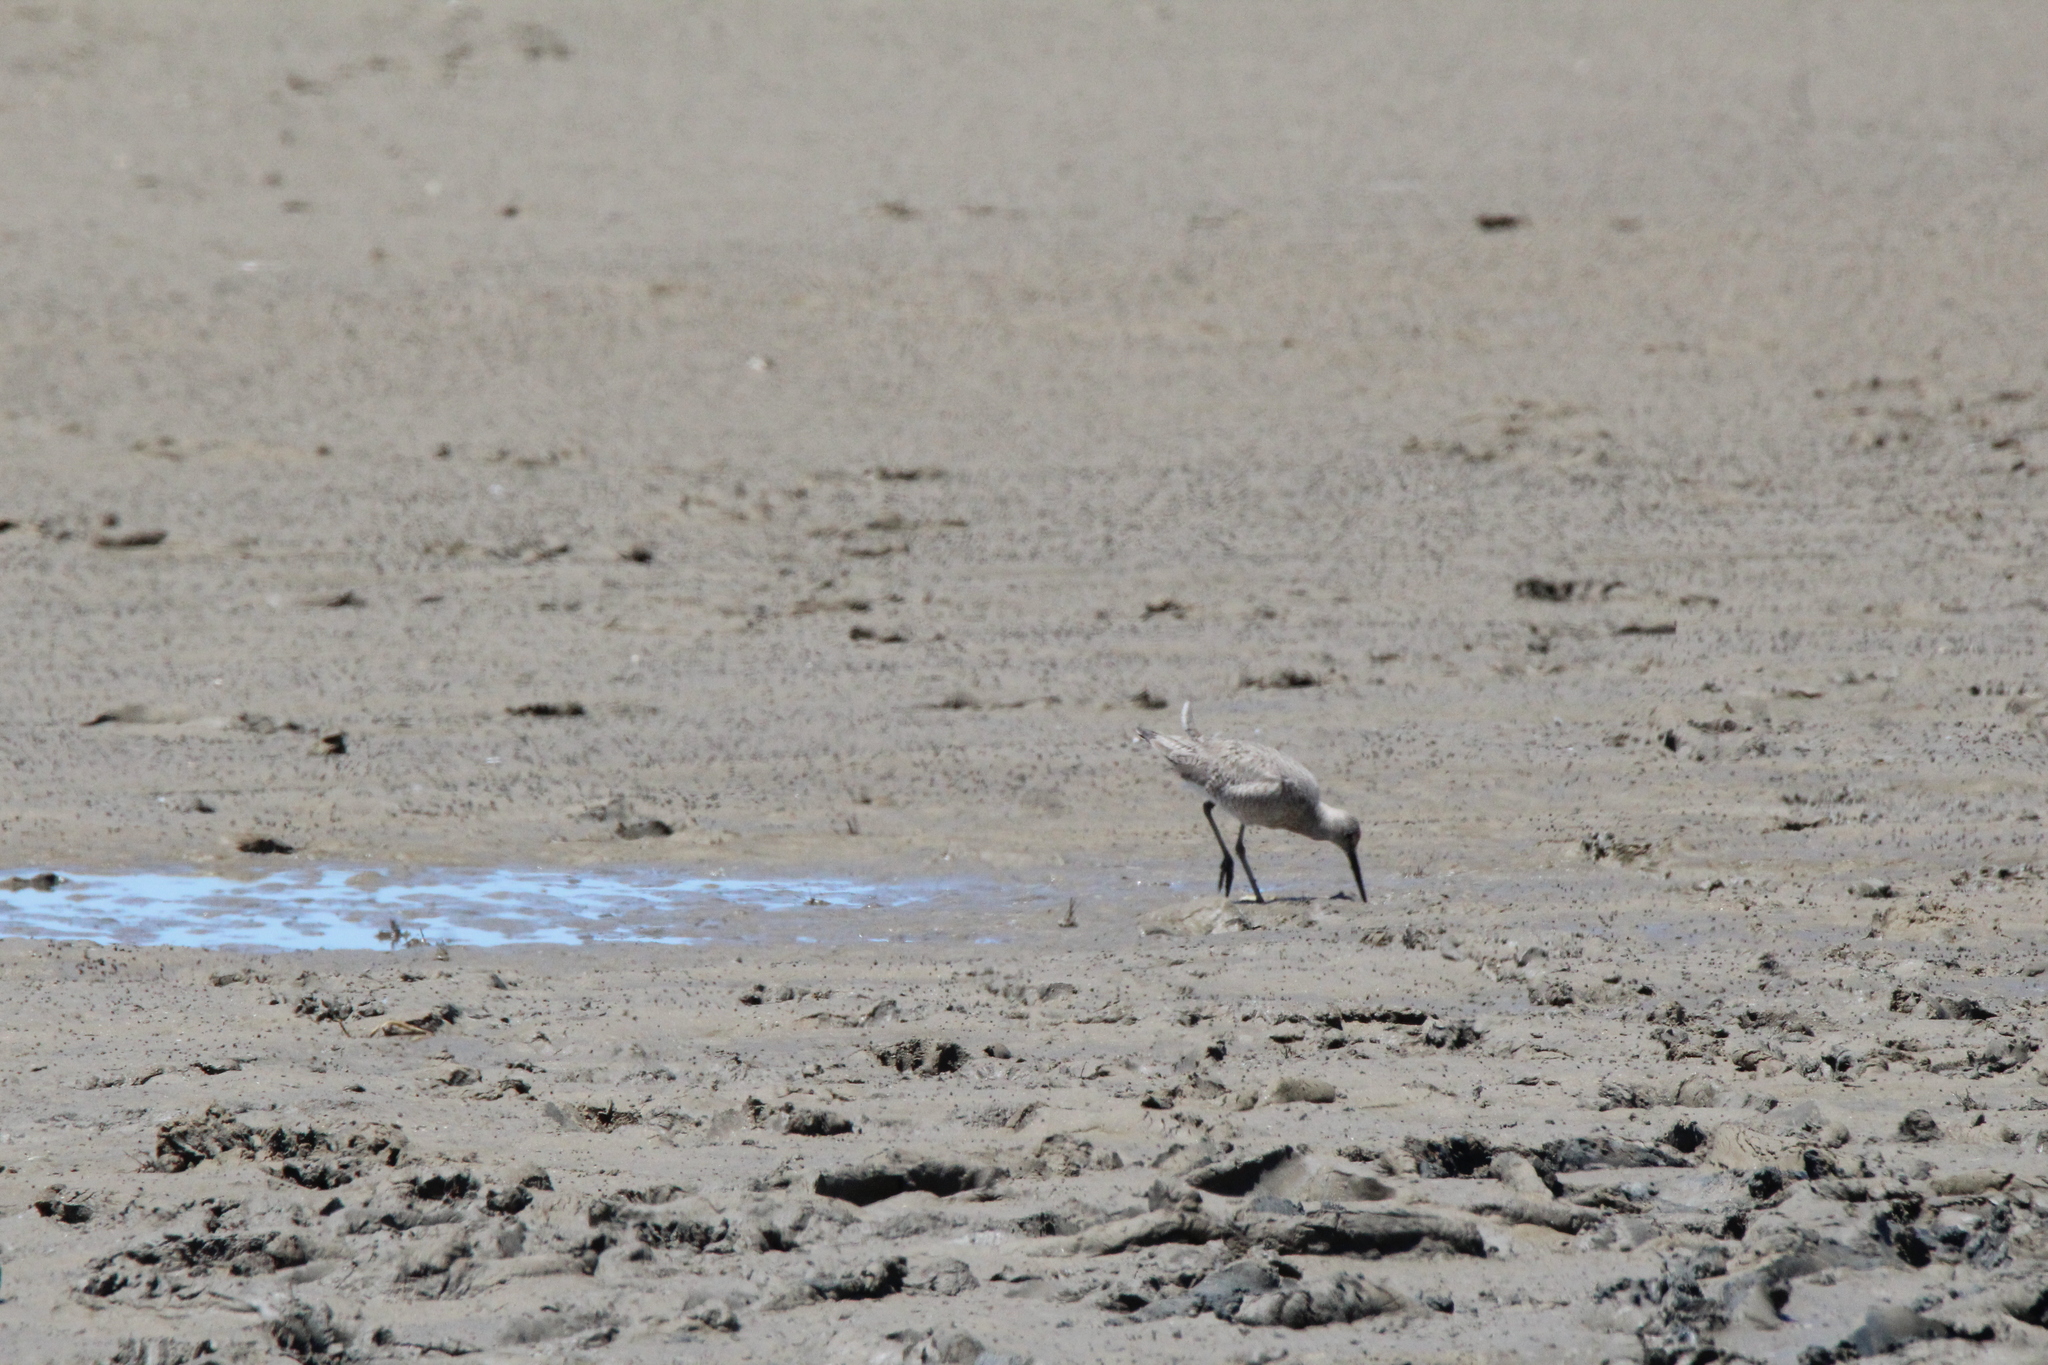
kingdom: Animalia
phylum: Chordata
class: Aves
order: Charadriiformes
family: Scolopacidae
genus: Tringa
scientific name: Tringa semipalmata
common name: Willet
